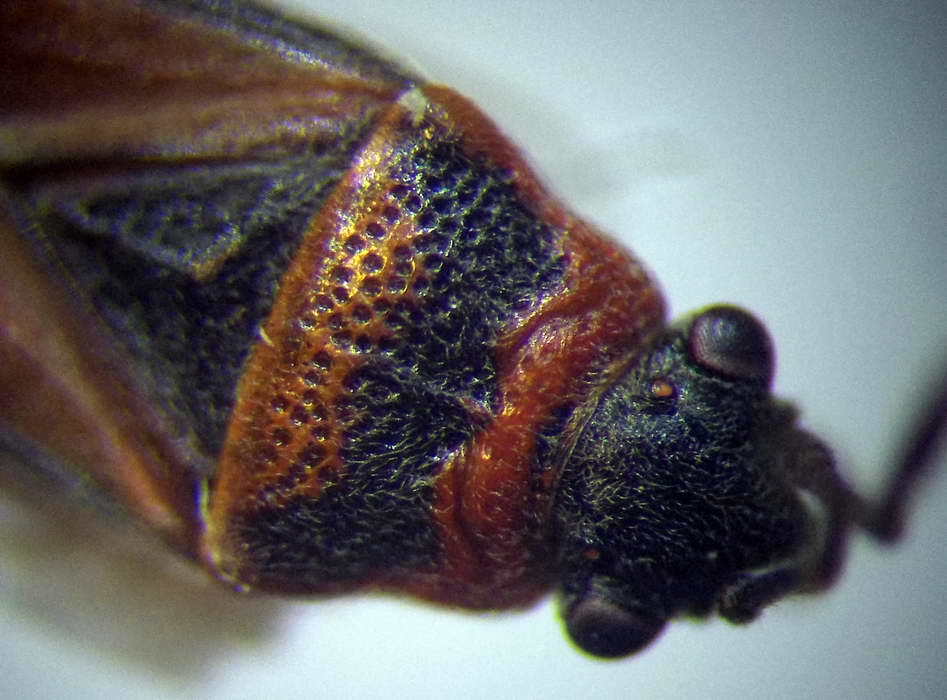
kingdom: Animalia
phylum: Arthropoda
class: Insecta
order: Hemiptera
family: Lygaeidae
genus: Arocatus
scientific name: Arocatus melanocephalus
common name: Lygaeid bug
